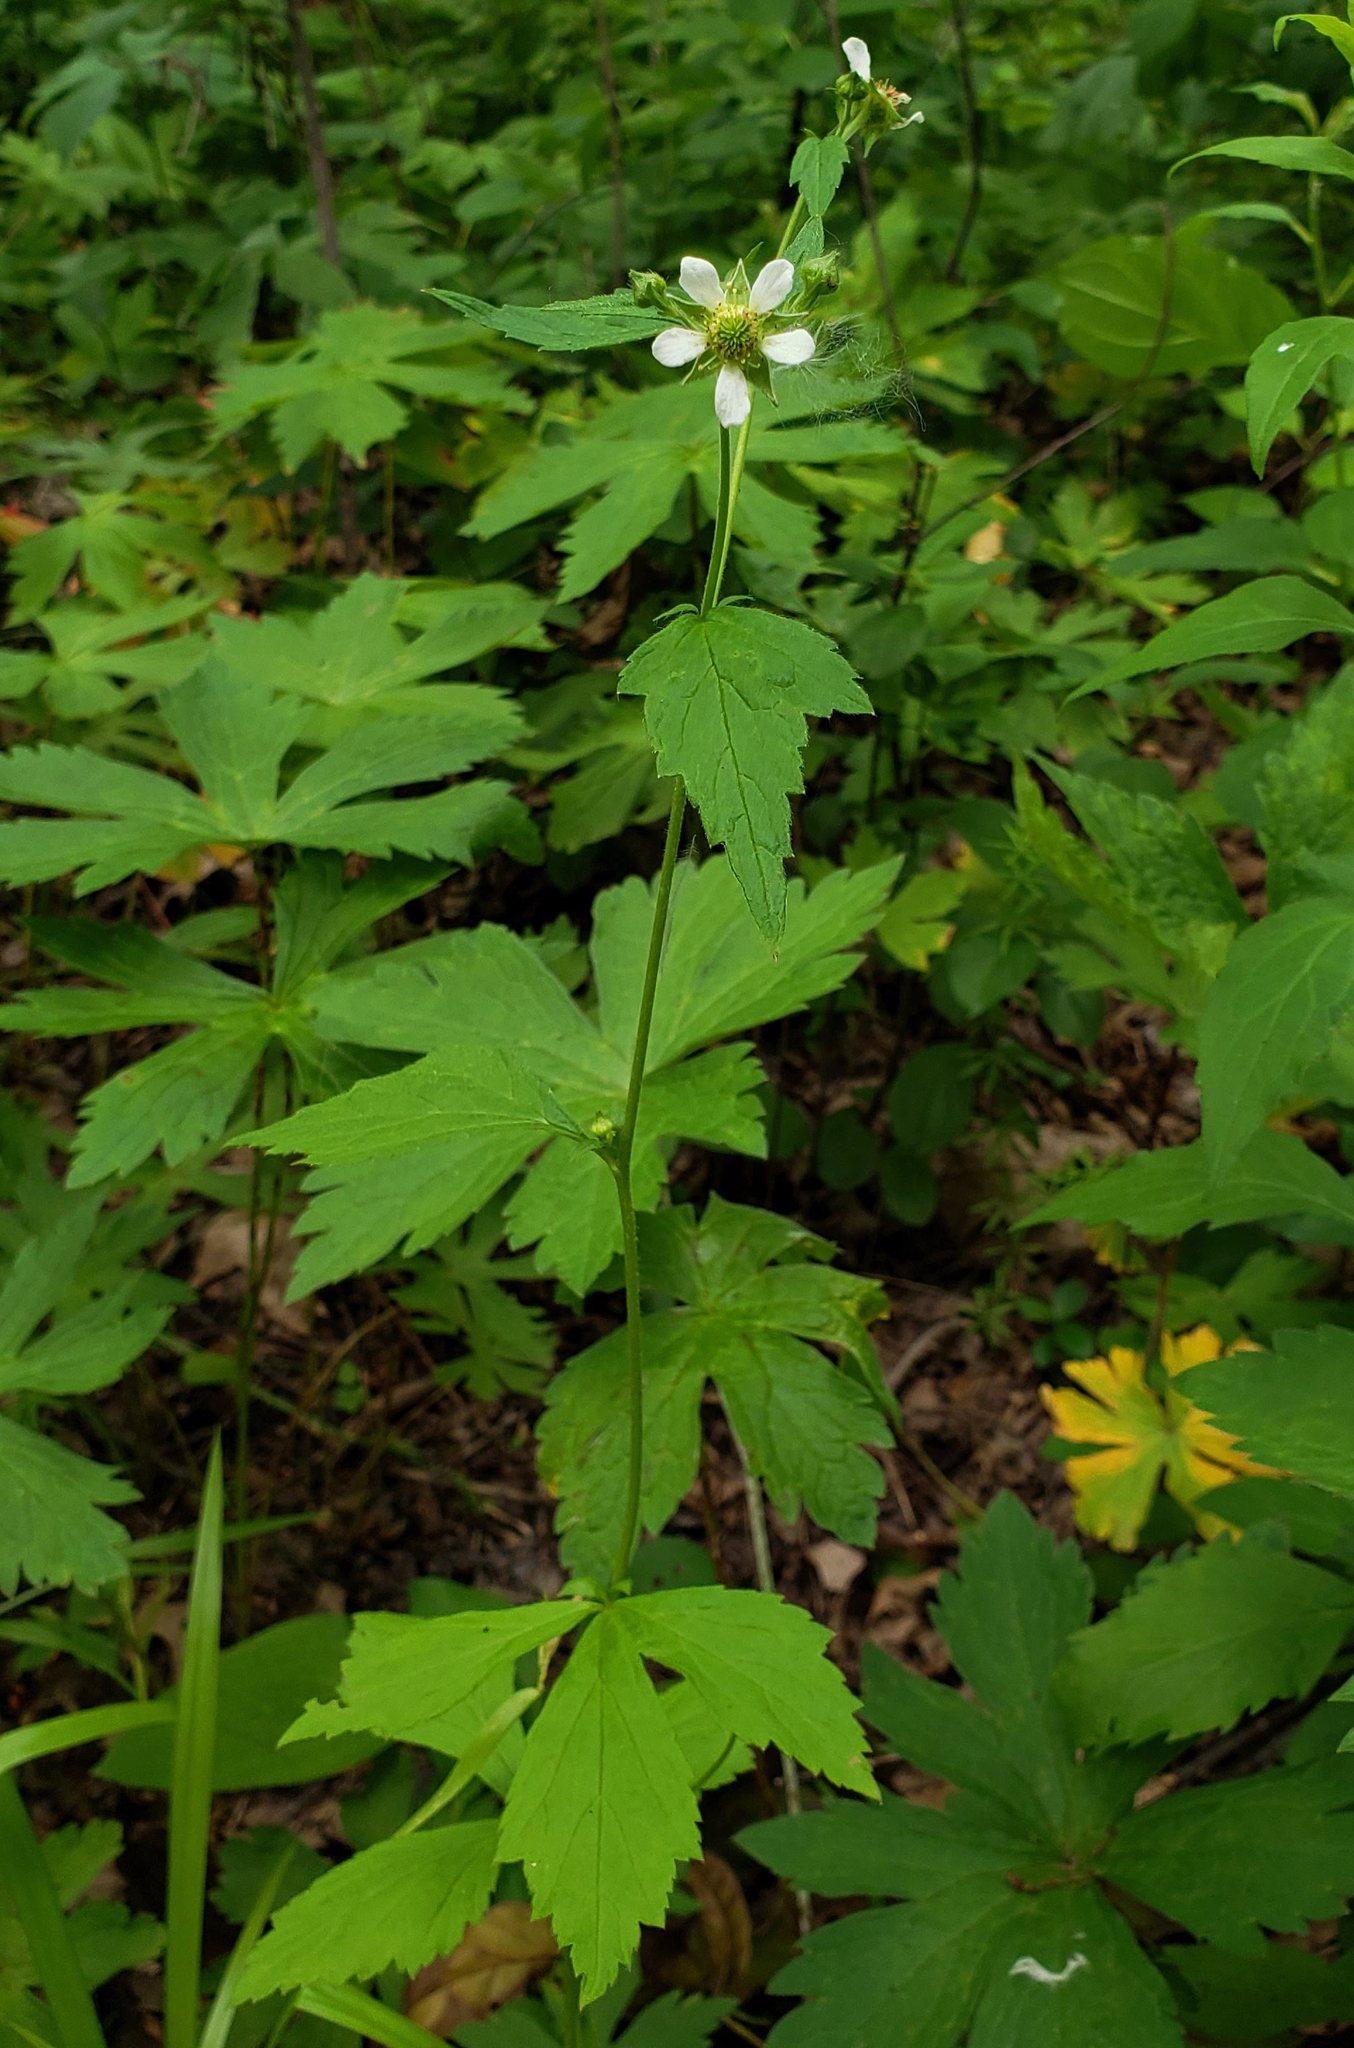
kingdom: Plantae
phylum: Tracheophyta
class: Magnoliopsida
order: Rosales
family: Rosaceae
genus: Geum
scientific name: Geum canadense
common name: White avens
